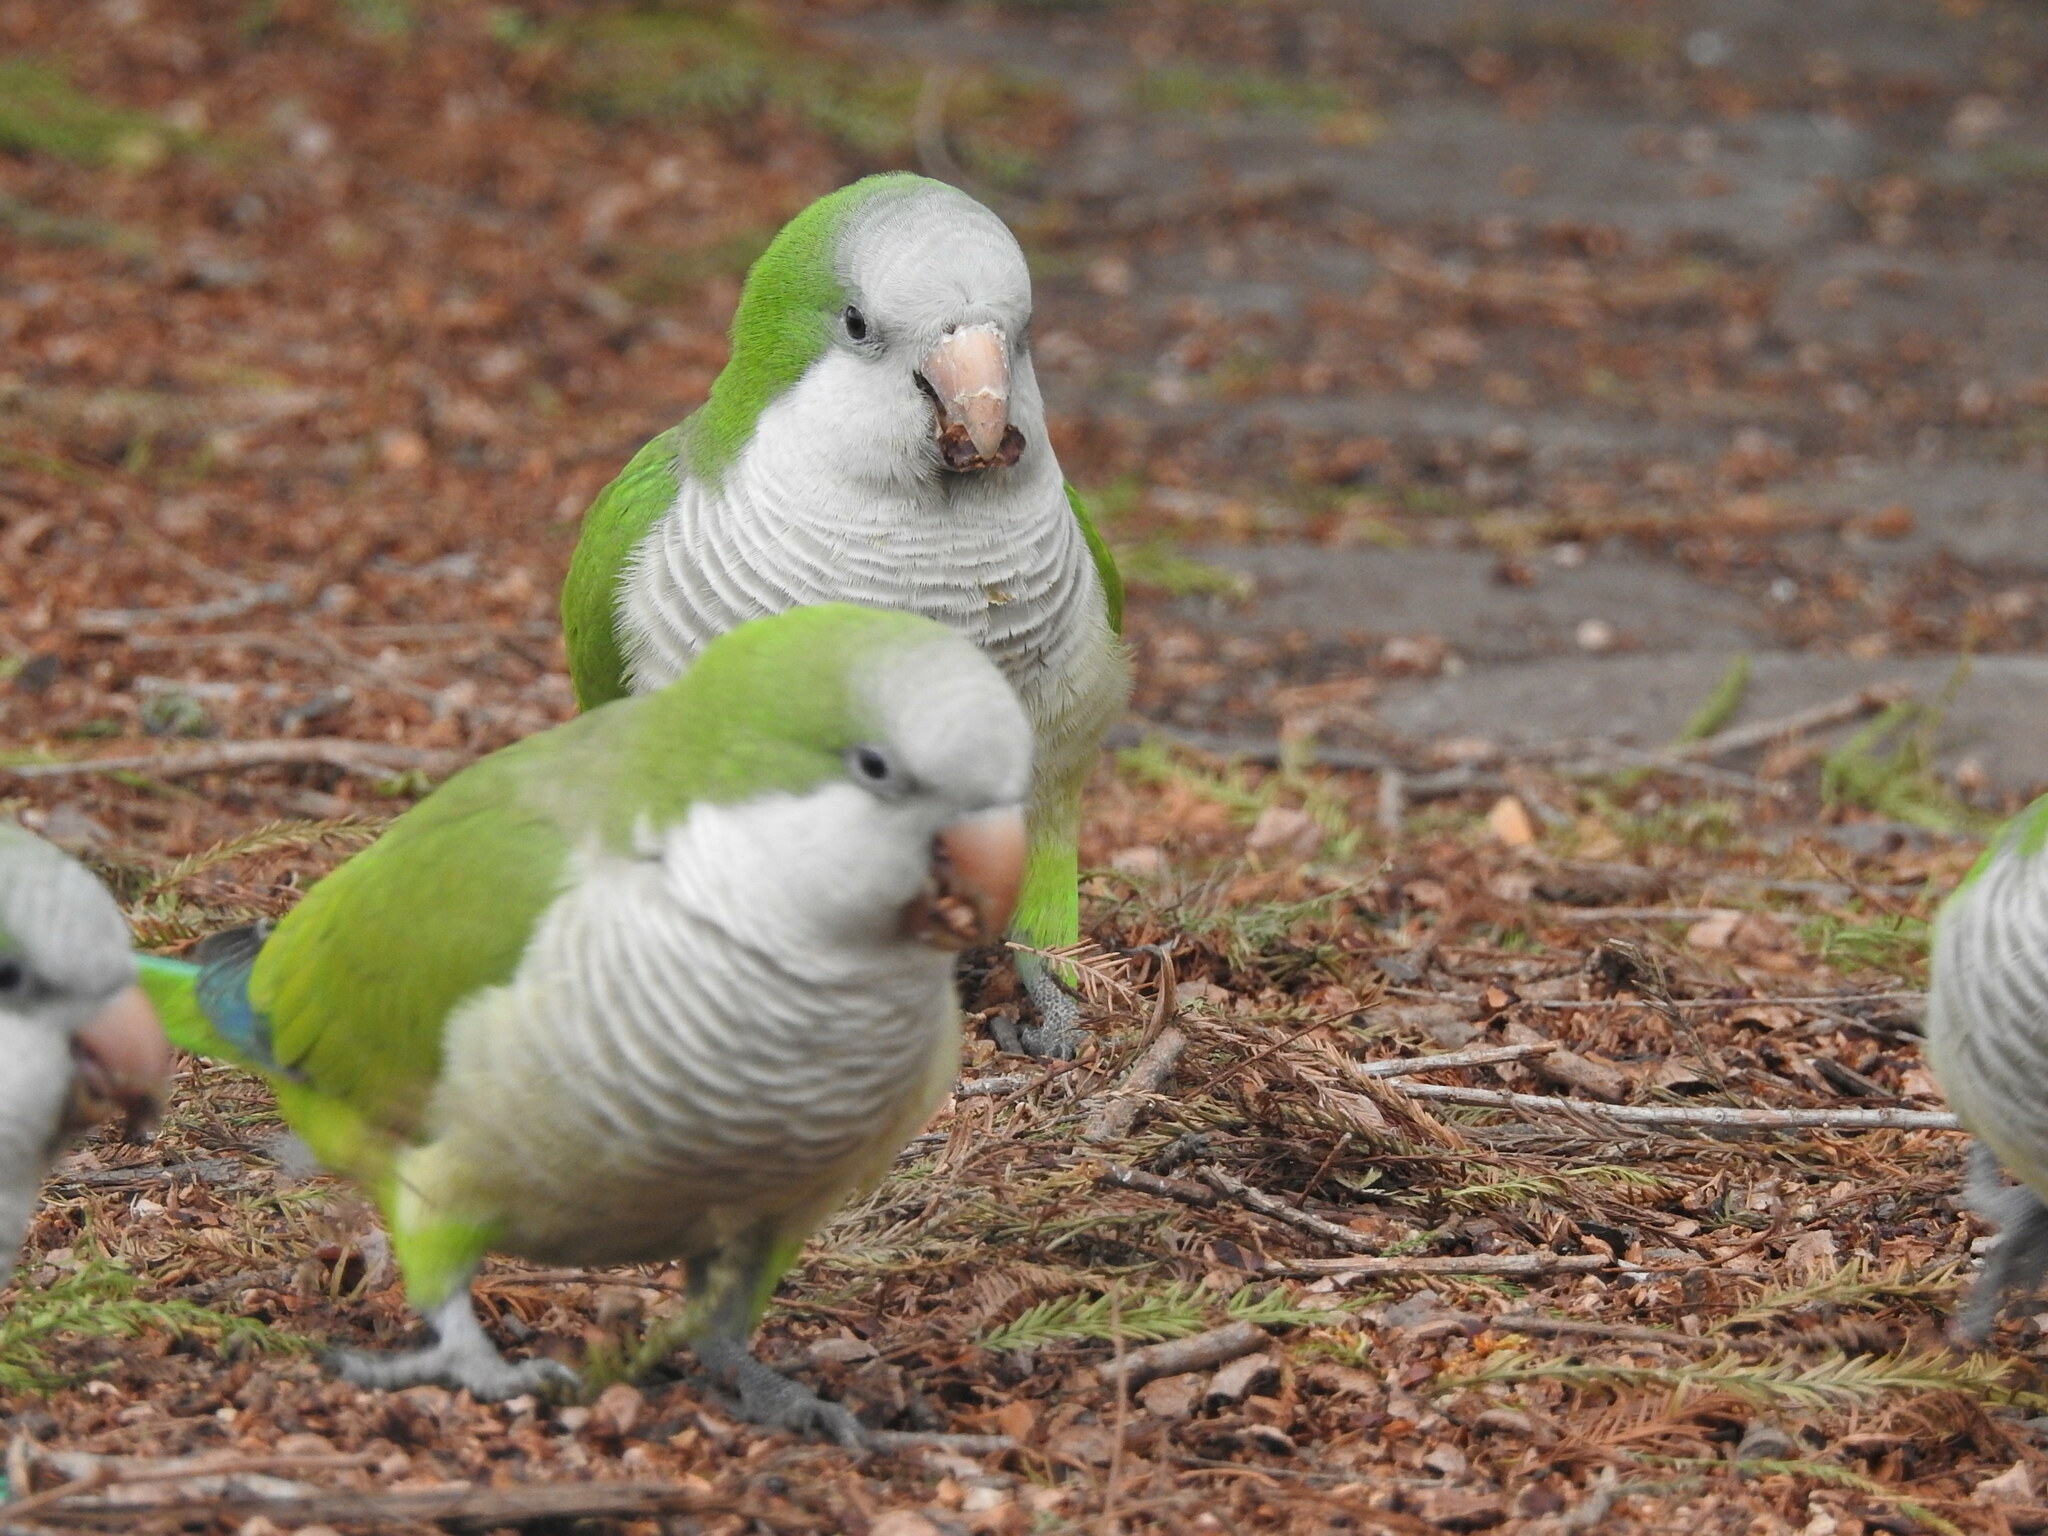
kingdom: Animalia
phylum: Chordata
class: Aves
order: Psittaciformes
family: Psittacidae
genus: Myiopsitta
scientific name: Myiopsitta monachus
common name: Monk parakeet
